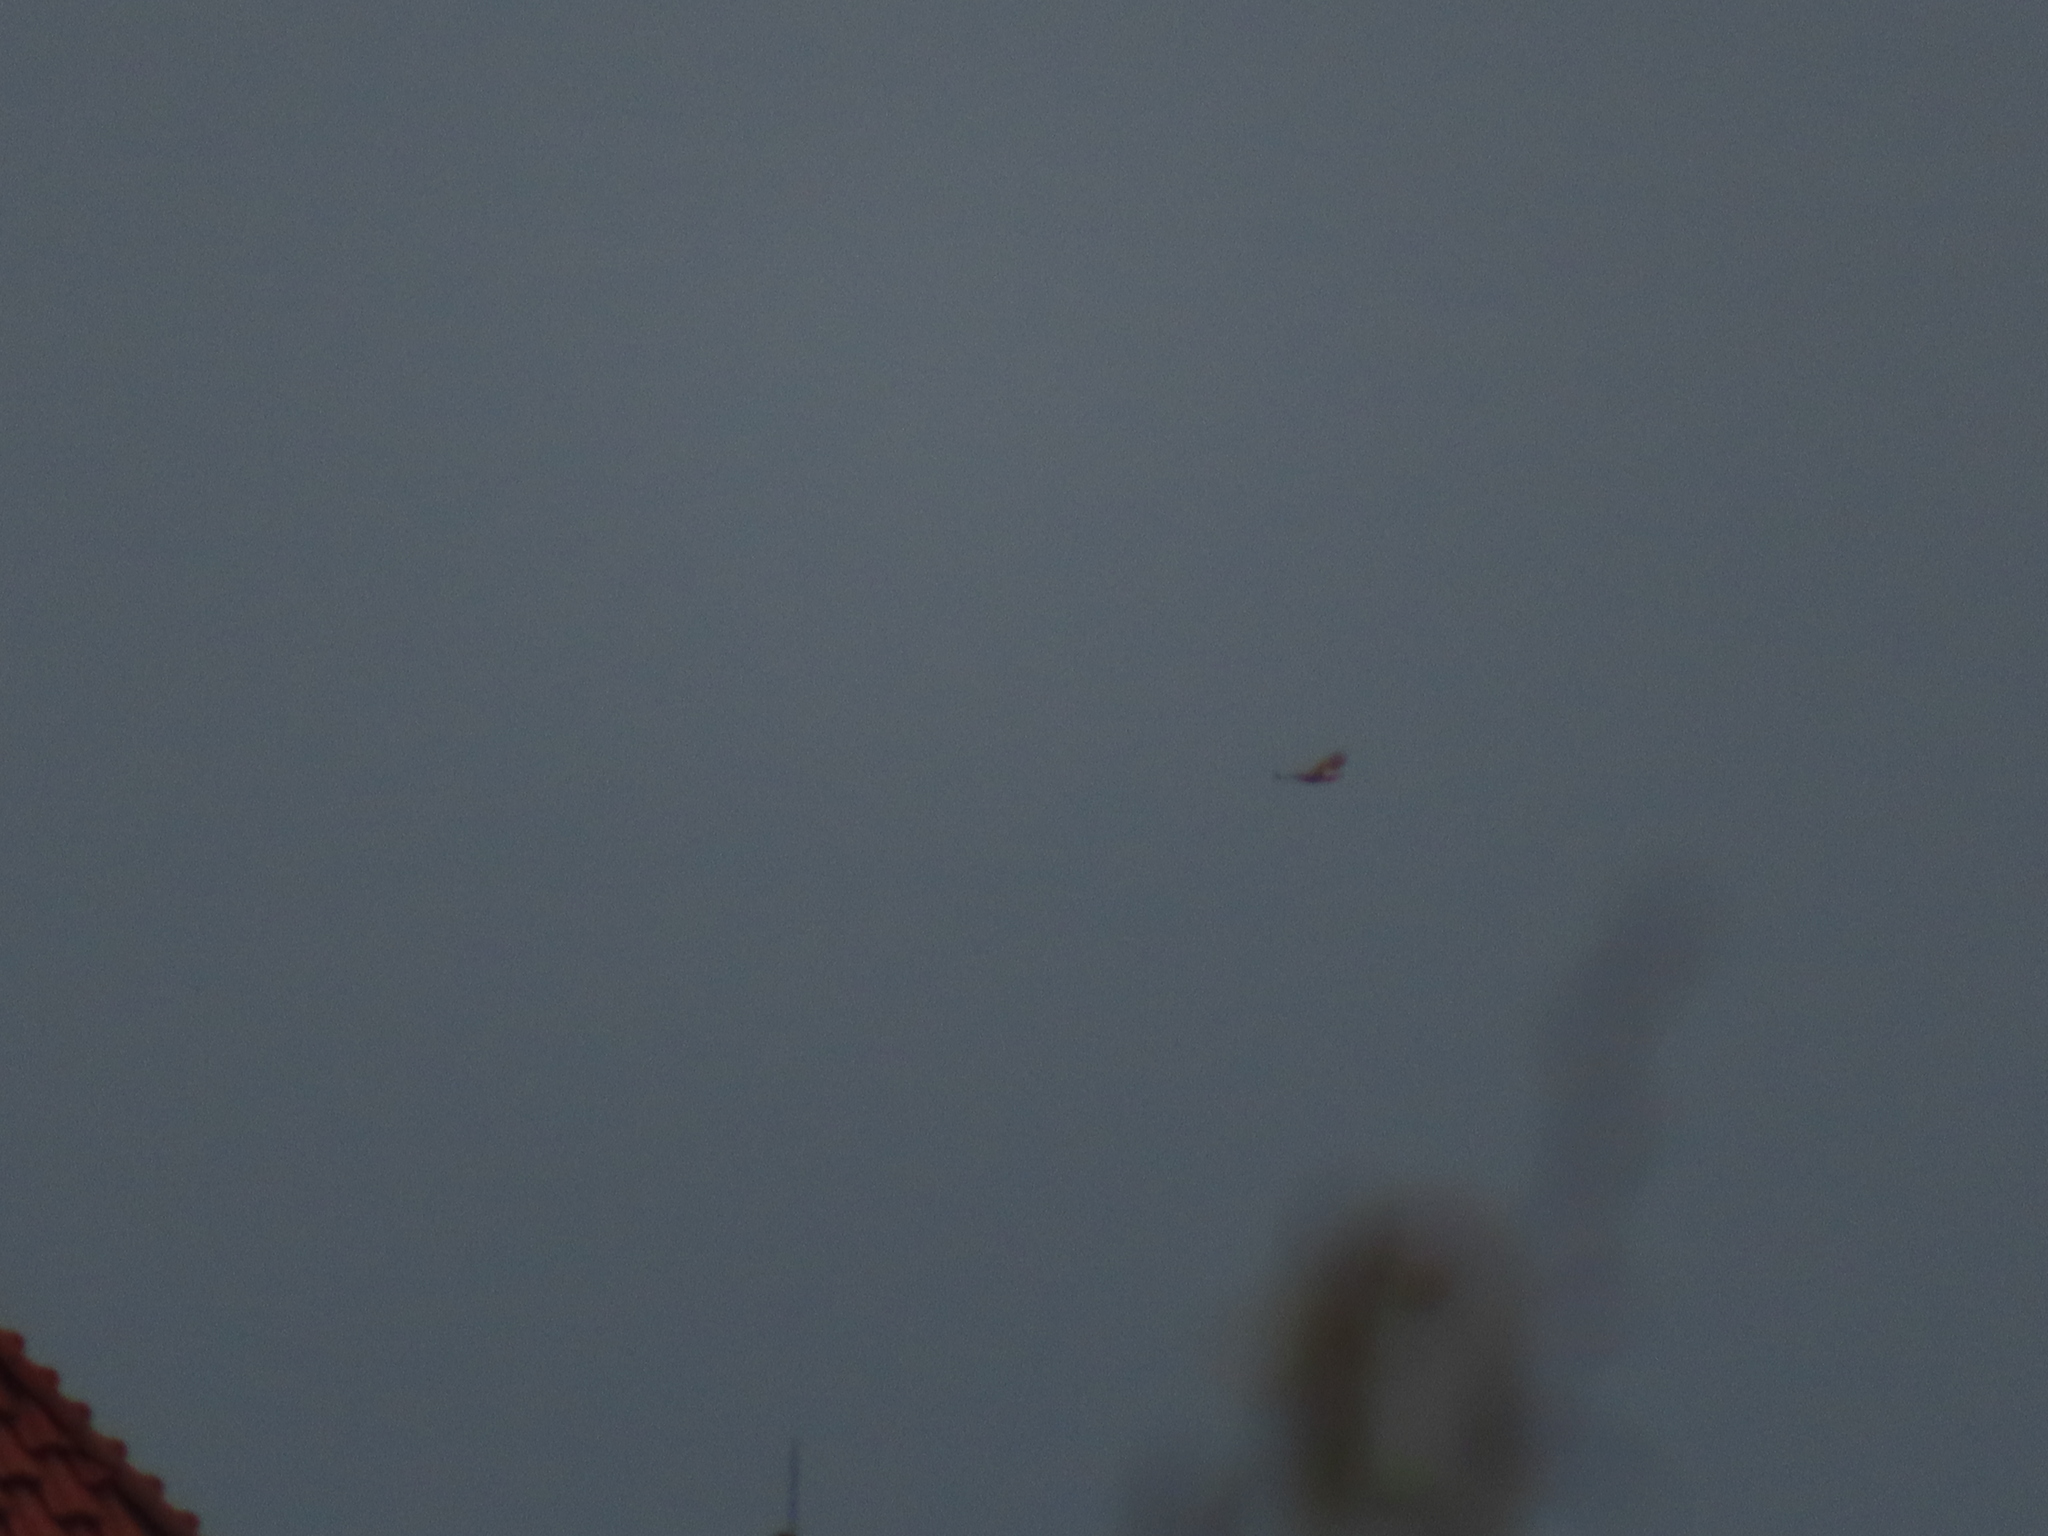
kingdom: Animalia
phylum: Chordata
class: Aves
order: Accipitriformes
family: Accipitridae
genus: Buteo
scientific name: Buteo jamaicensis
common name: Red-tailed hawk
